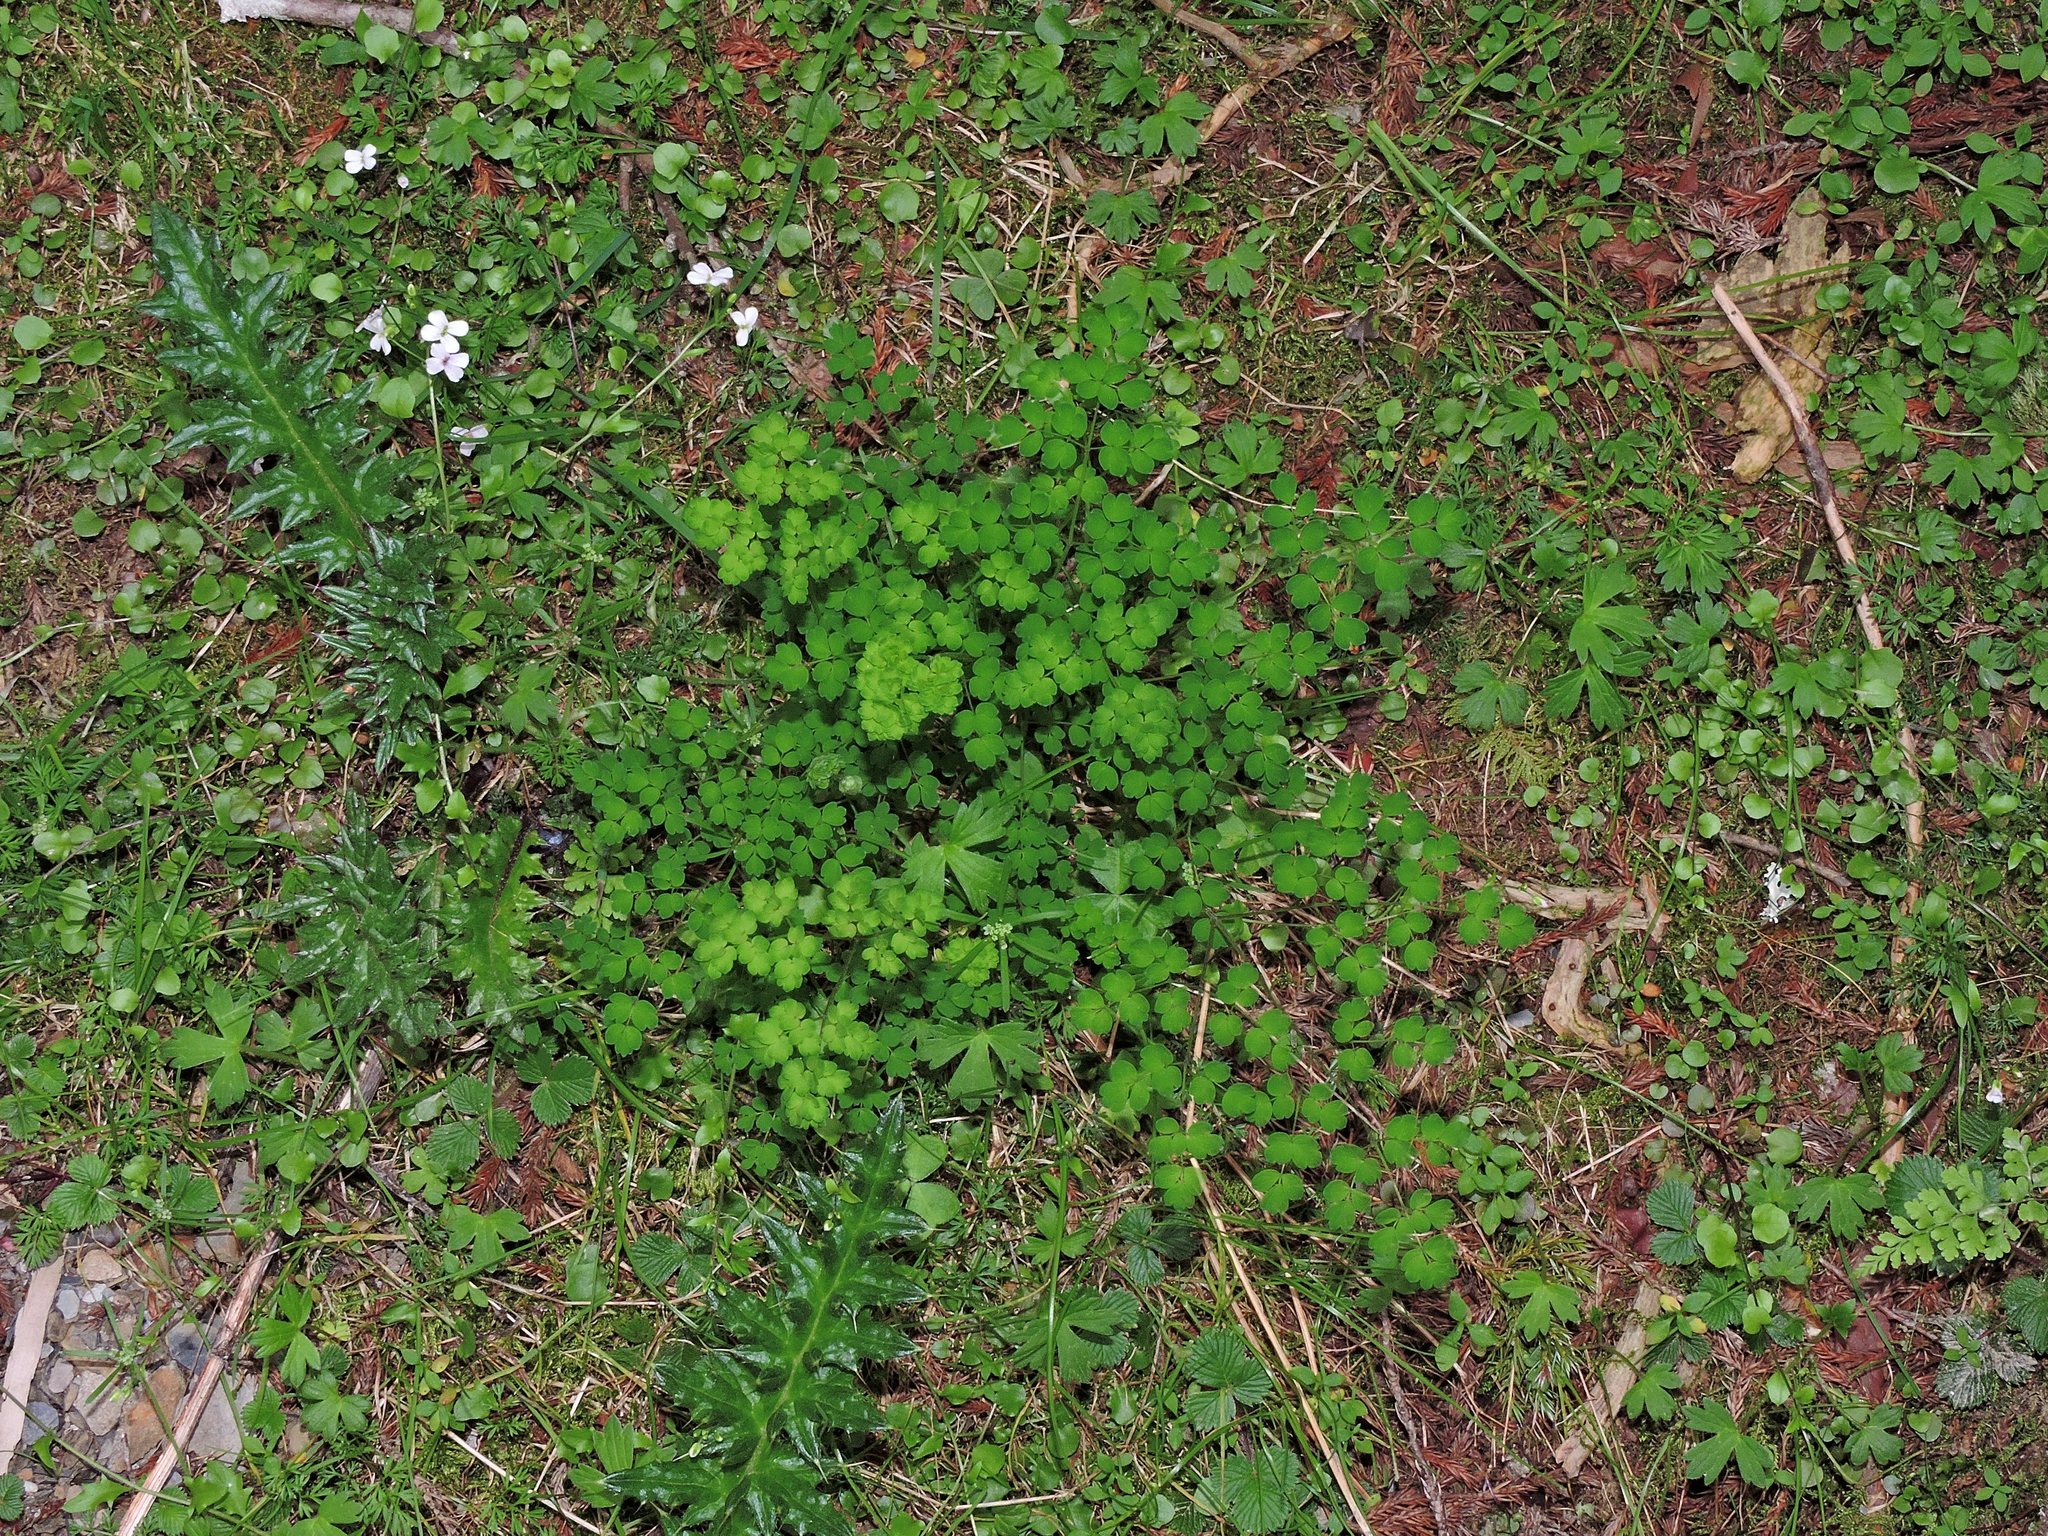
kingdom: Plantae
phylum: Tracheophyta
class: Magnoliopsida
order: Ranunculales
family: Ranunculaceae
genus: Thalictrum
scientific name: Thalictrum myriophyllum
